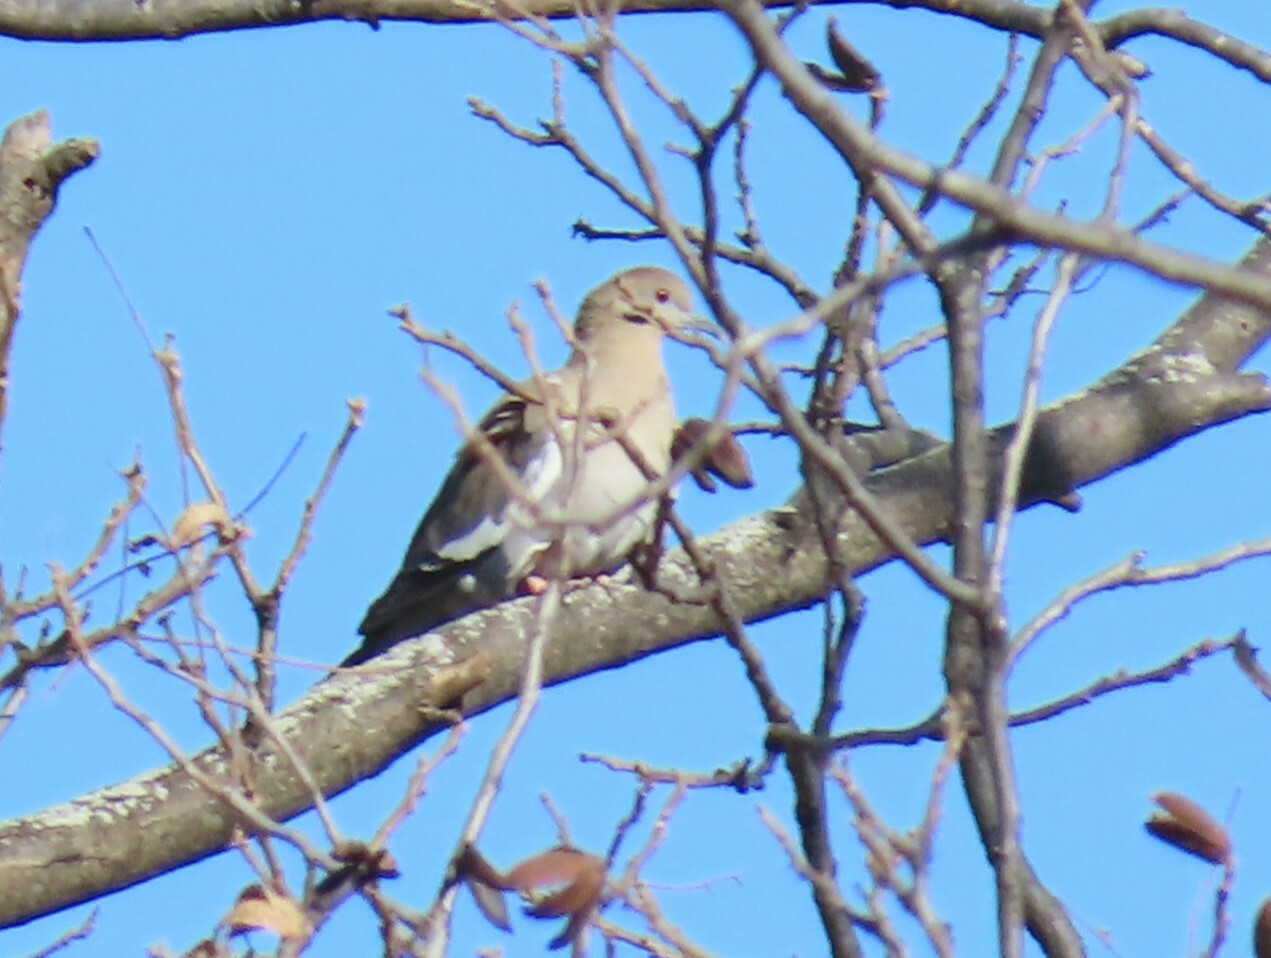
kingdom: Animalia
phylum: Chordata
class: Aves
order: Columbiformes
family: Columbidae
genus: Zenaida
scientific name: Zenaida asiatica
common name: White-winged dove
